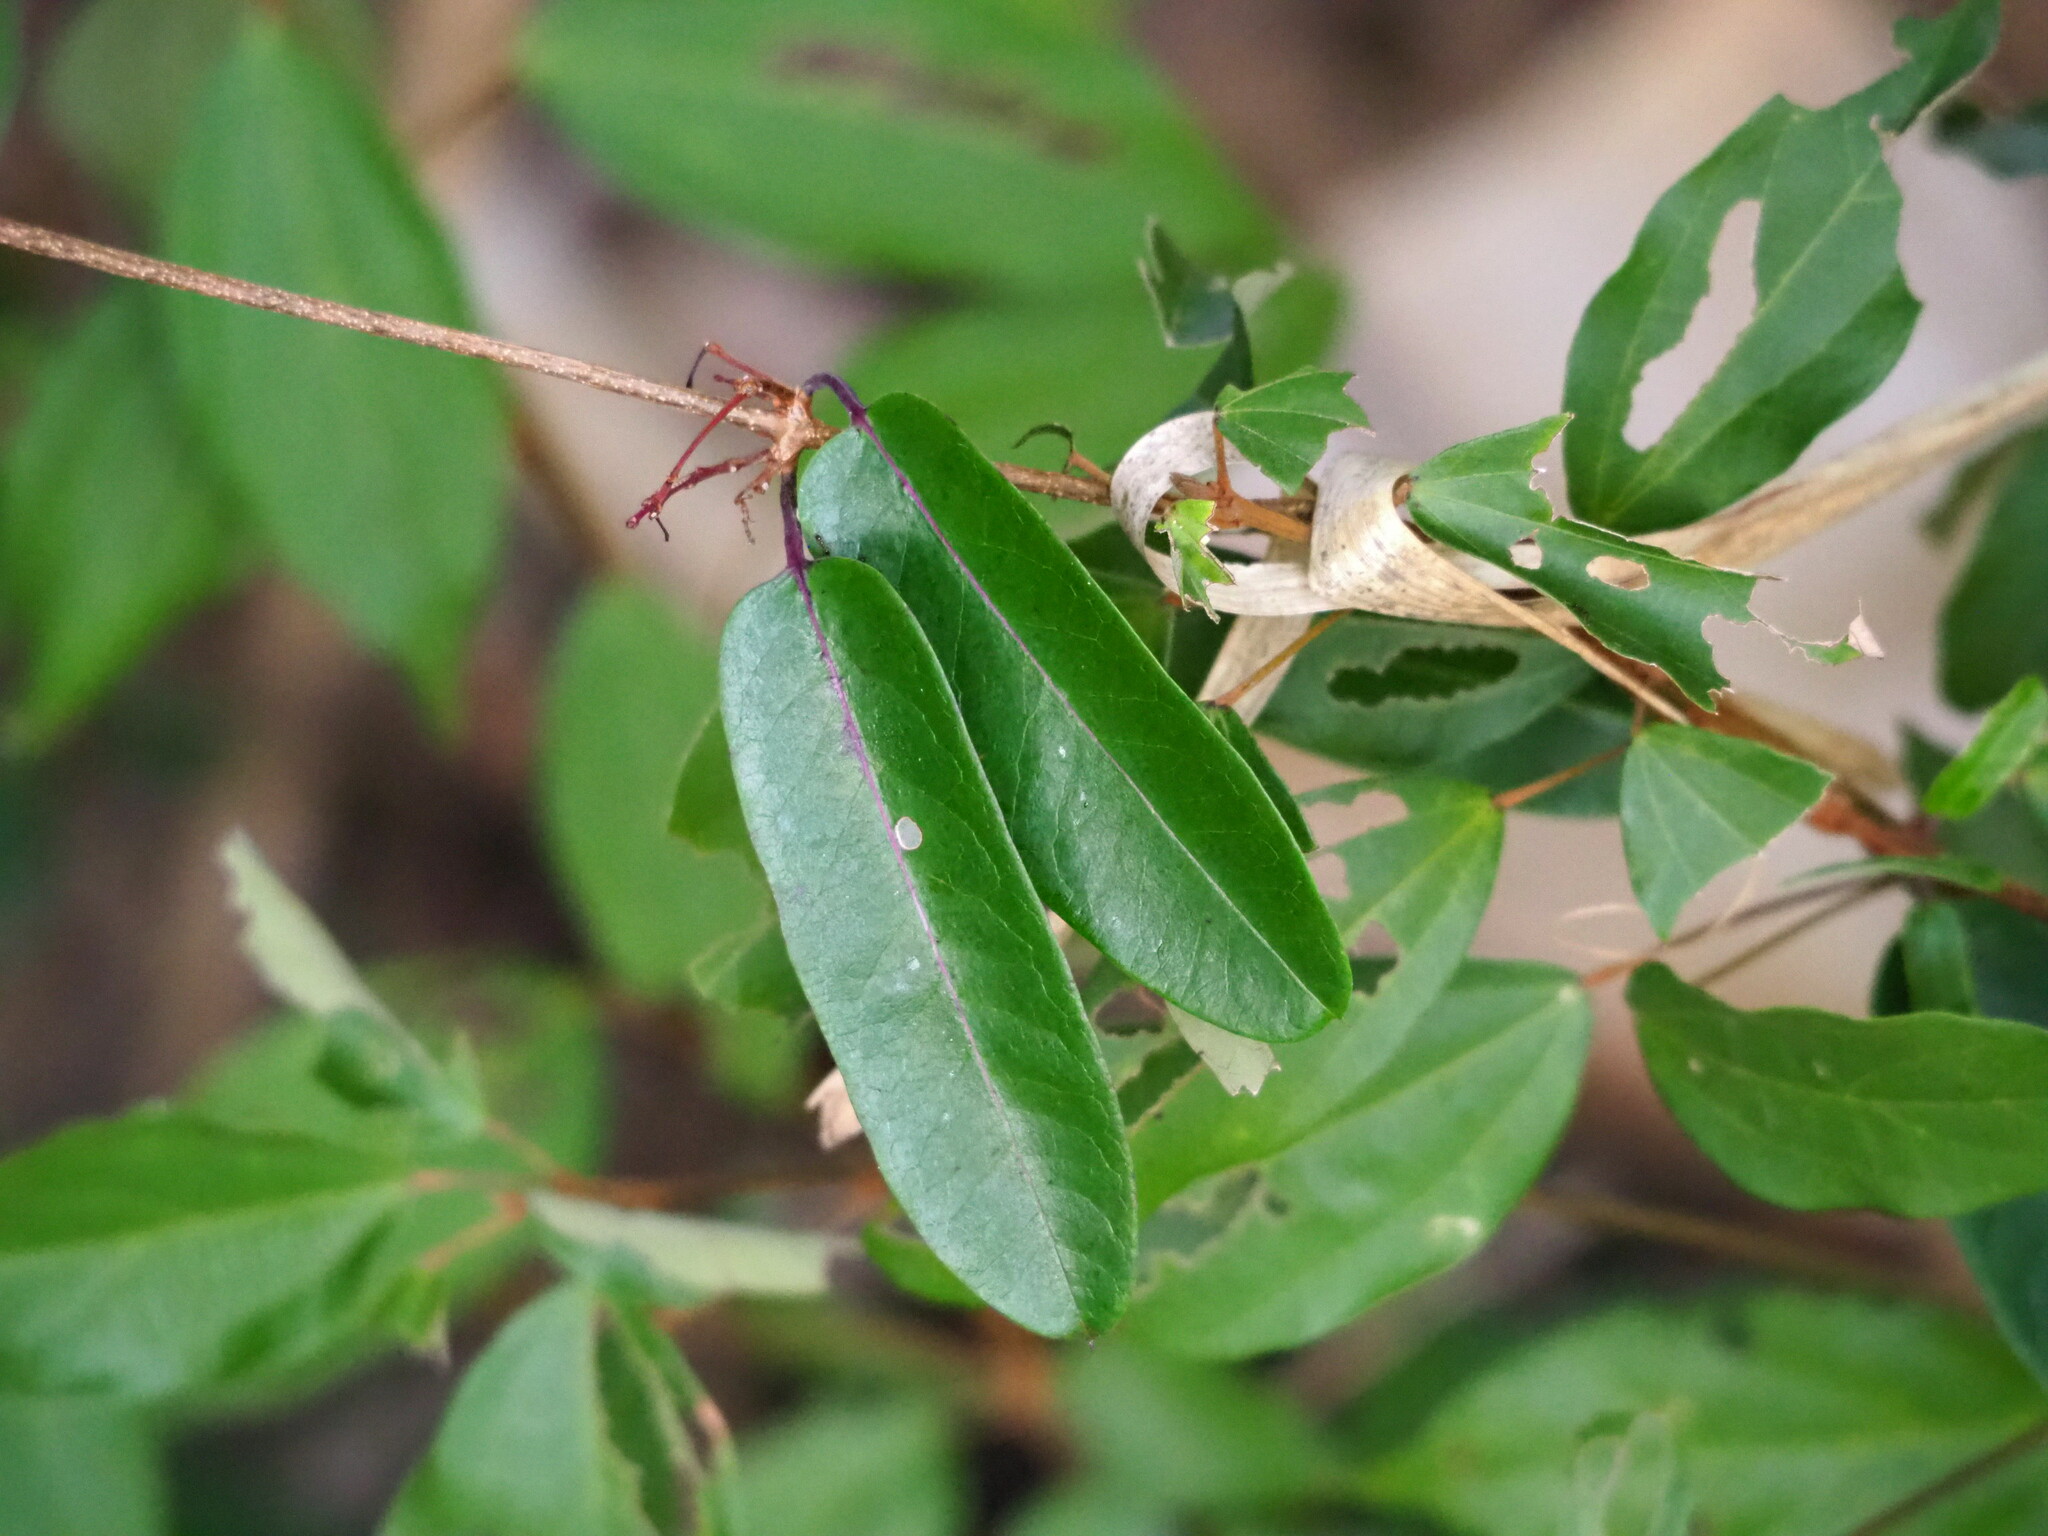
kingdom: Plantae
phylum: Tracheophyta
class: Magnoliopsida
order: Gentianales
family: Apocynaceae
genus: Cryptolepis
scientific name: Cryptolepis sinensis
